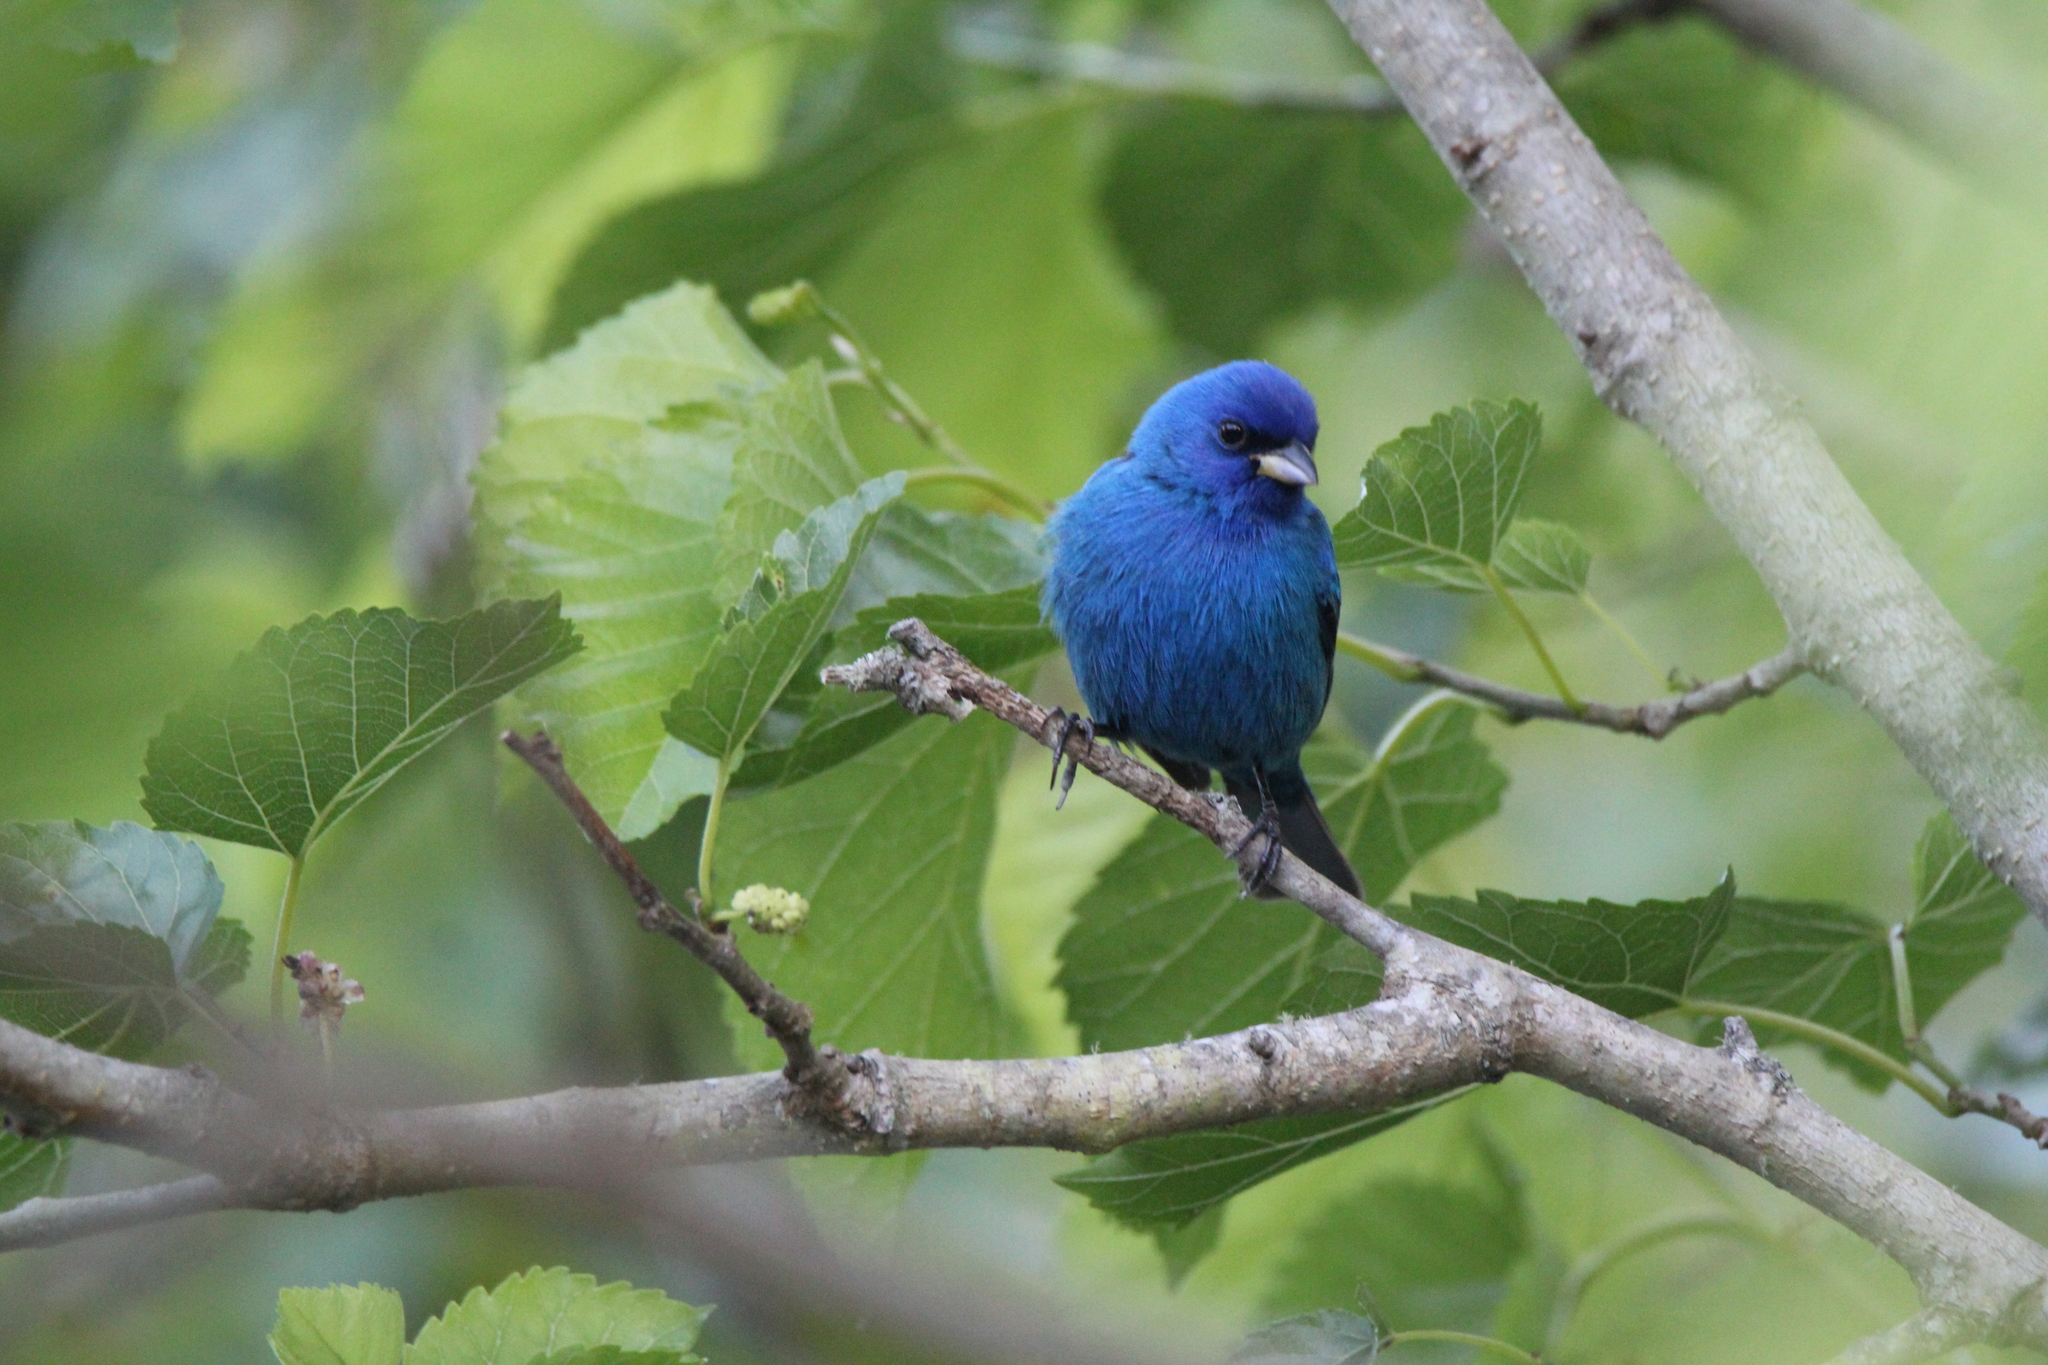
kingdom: Animalia
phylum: Chordata
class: Aves
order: Passeriformes
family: Cardinalidae
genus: Passerina
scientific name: Passerina cyanea
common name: Indigo bunting
